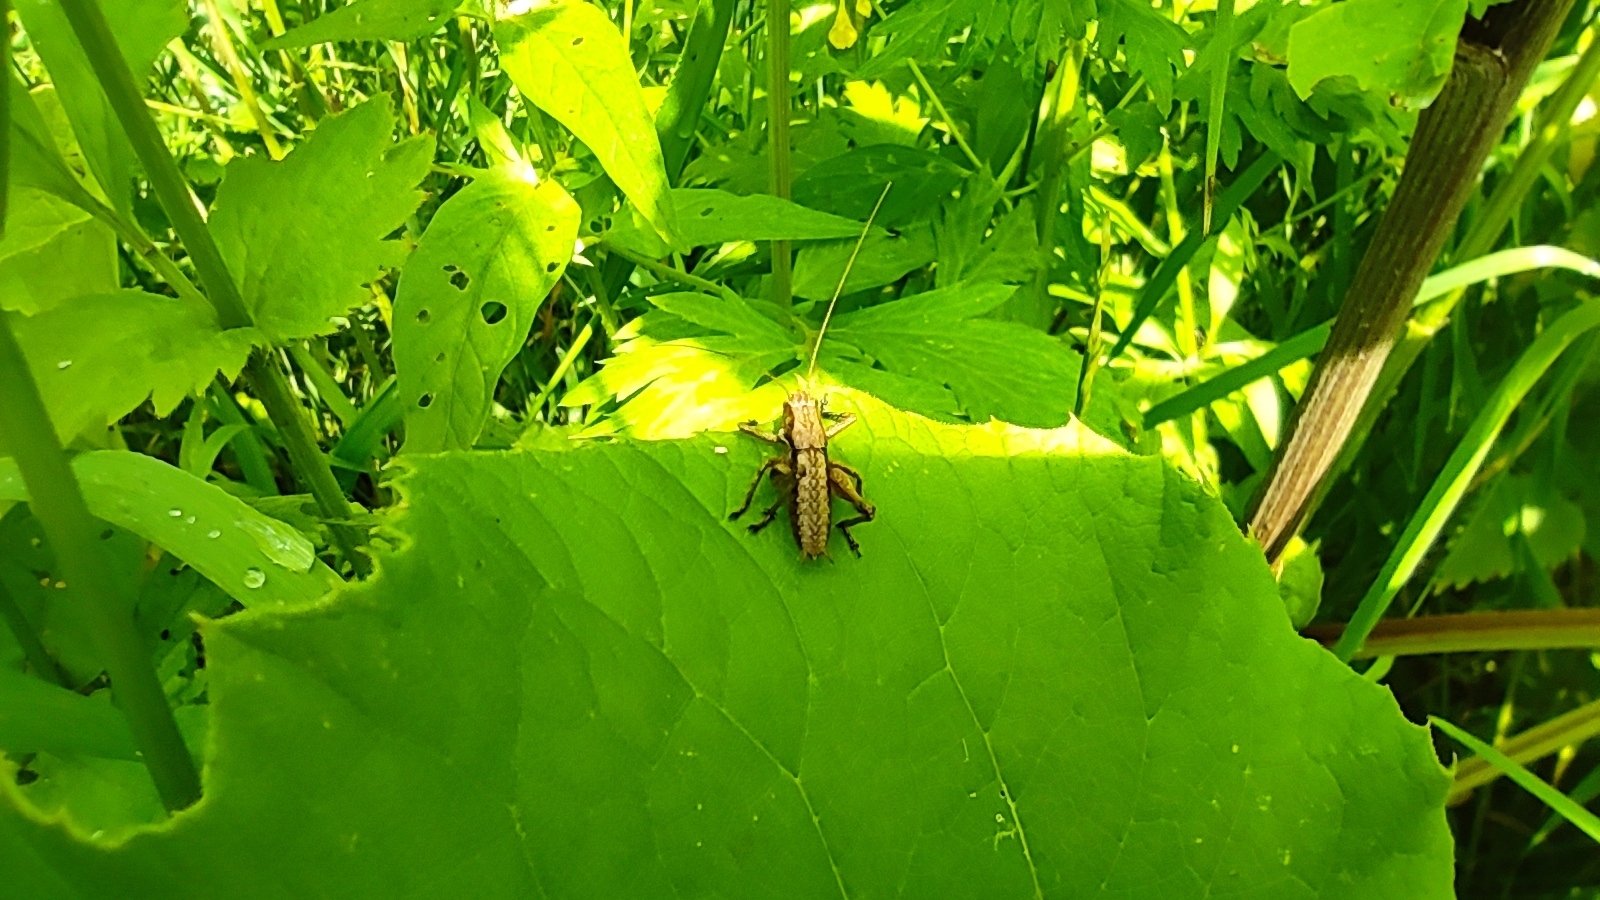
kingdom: Animalia
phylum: Arthropoda
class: Insecta
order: Orthoptera
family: Tettigoniidae
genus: Pholidoptera
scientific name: Pholidoptera griseoaptera
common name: Dark bush-cricket
